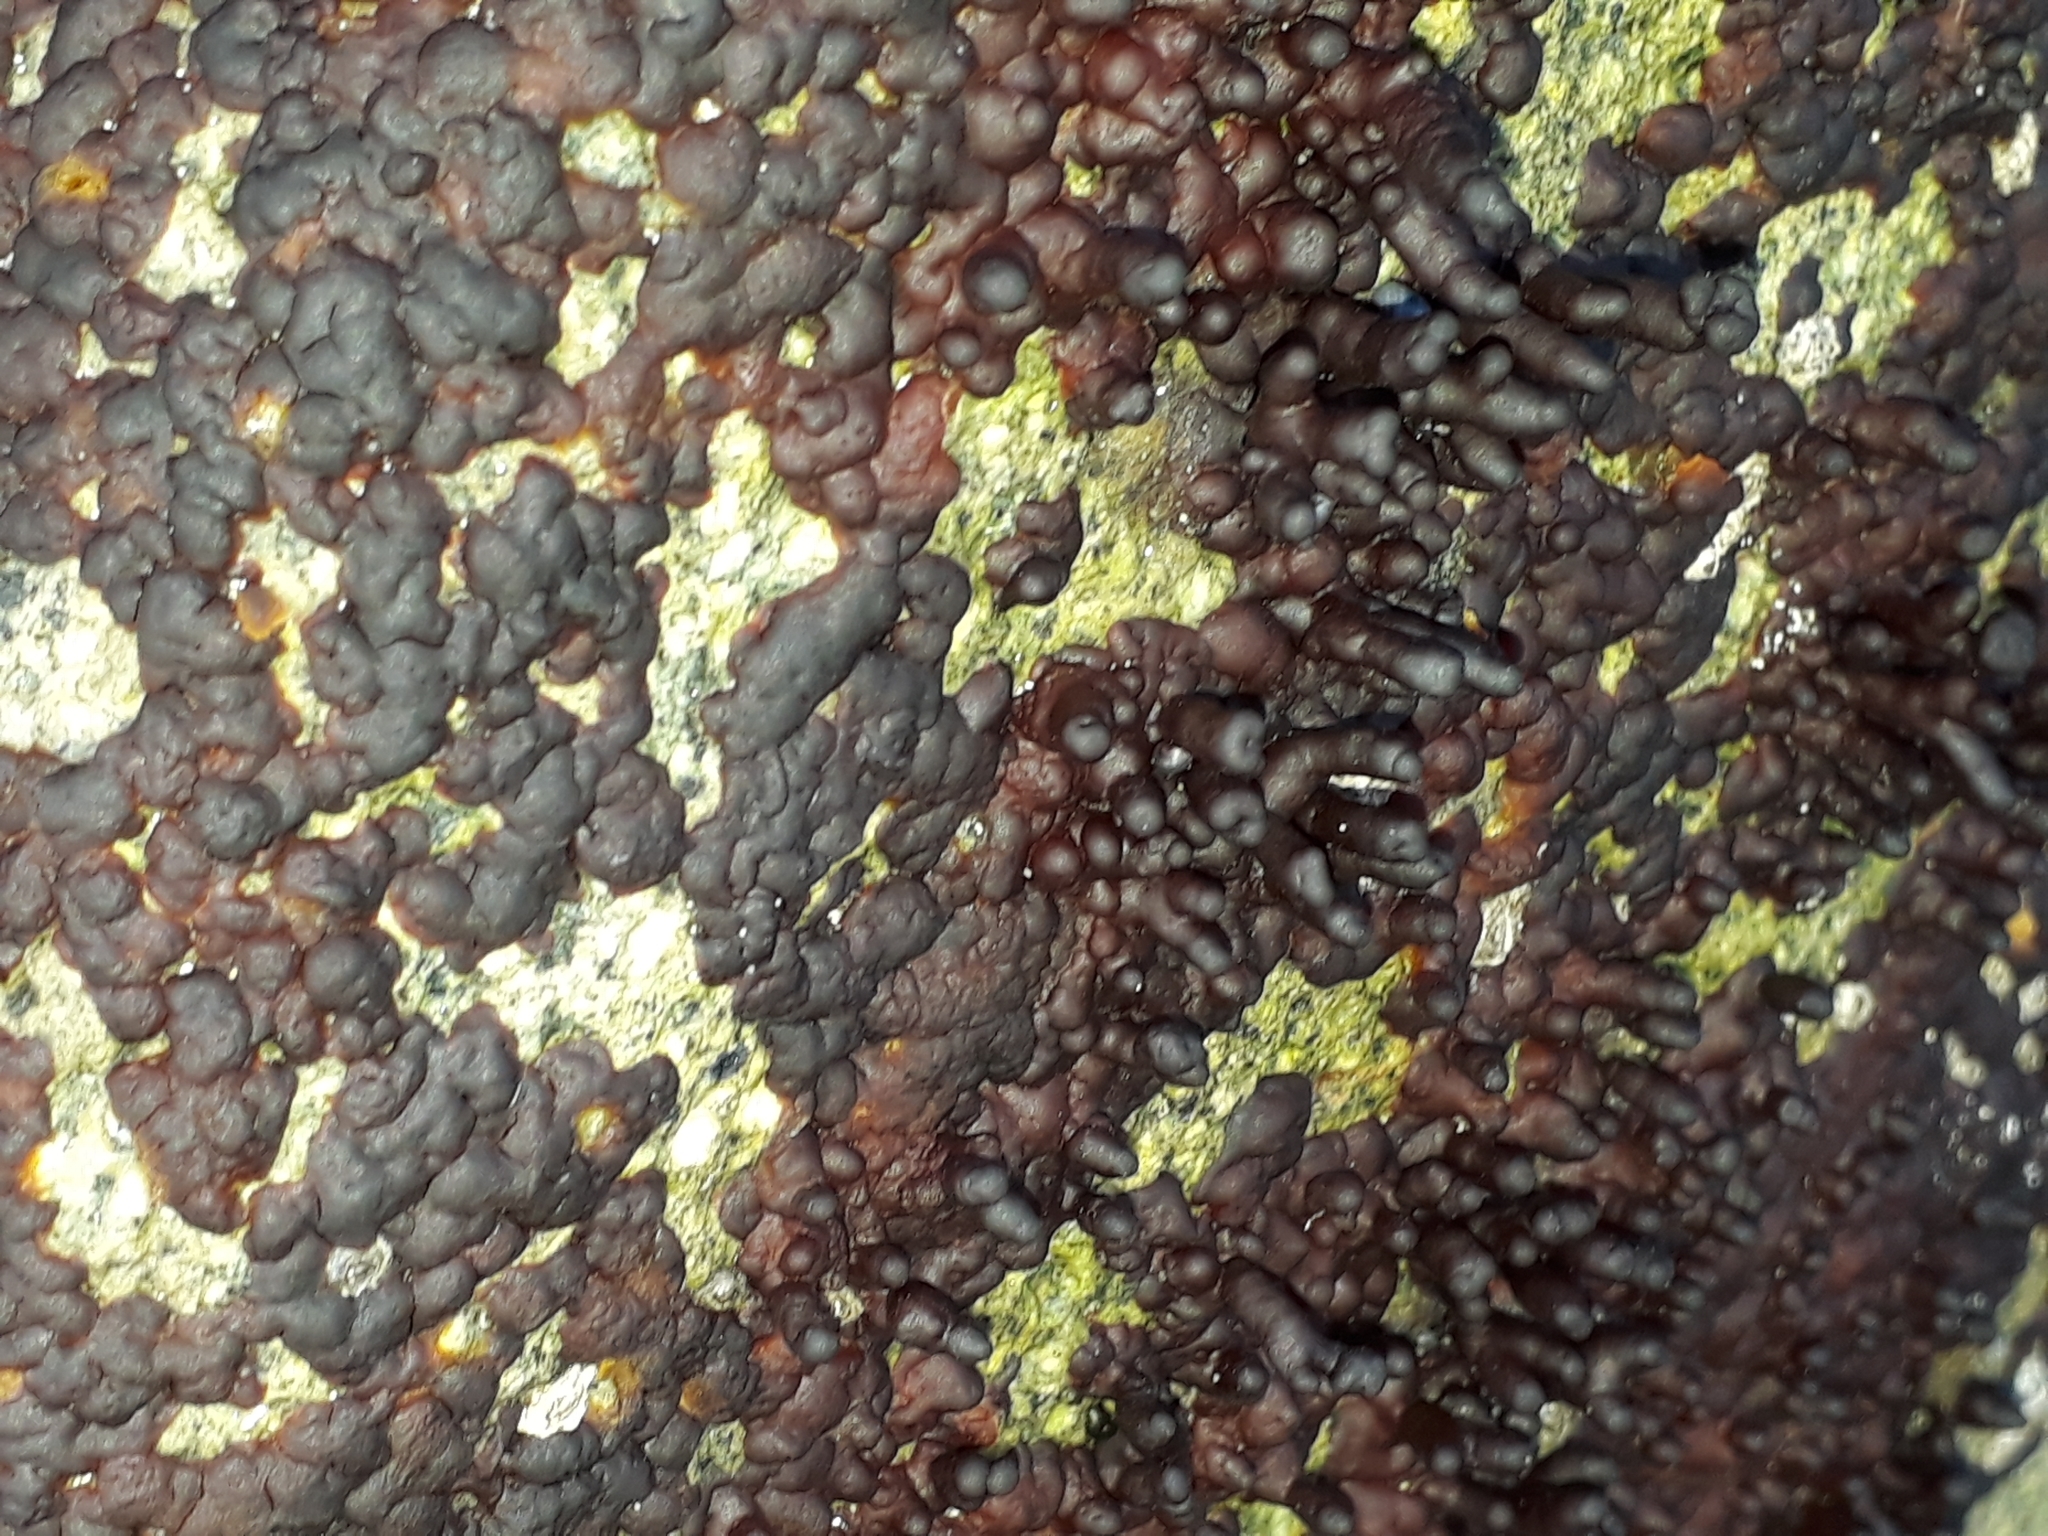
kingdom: Plantae
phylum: Rhodophyta
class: Florideophyceae
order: Hildenbrandiales
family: Hildenbrandiaceae
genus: Apophlaea
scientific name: Apophlaea sinclairii
